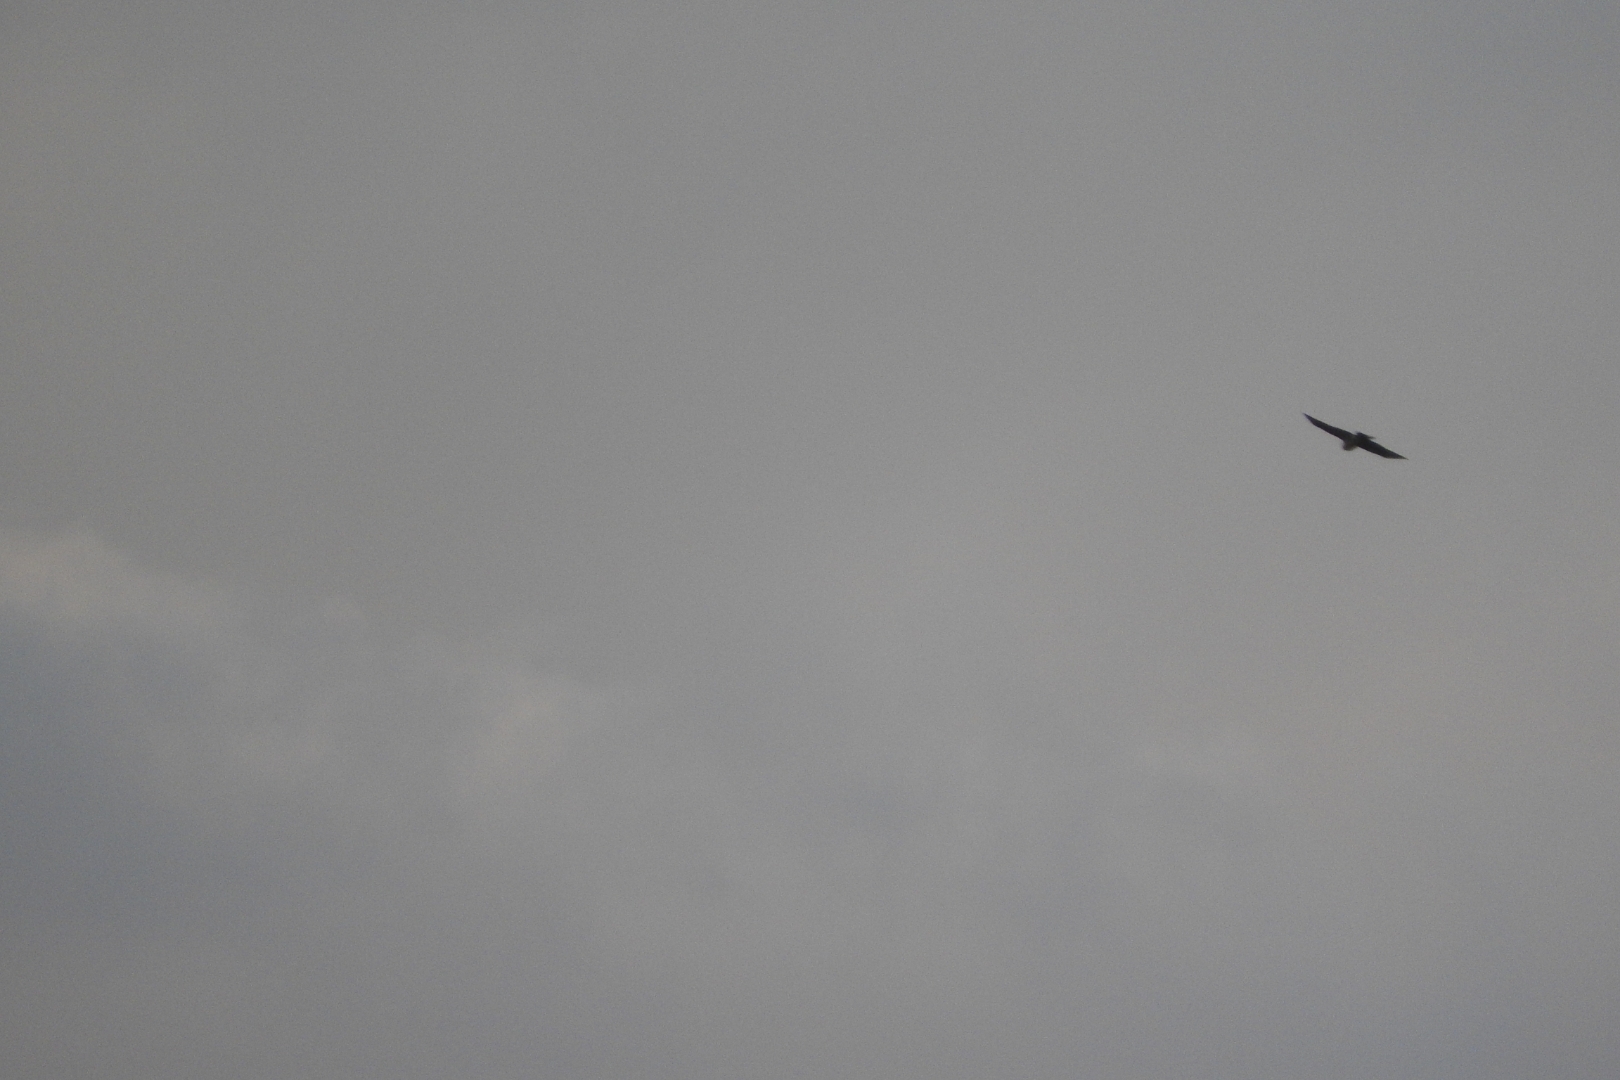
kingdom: Animalia
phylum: Chordata
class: Aves
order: Falconiformes
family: Falconidae
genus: Falco
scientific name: Falco columbarius
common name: Merlin
